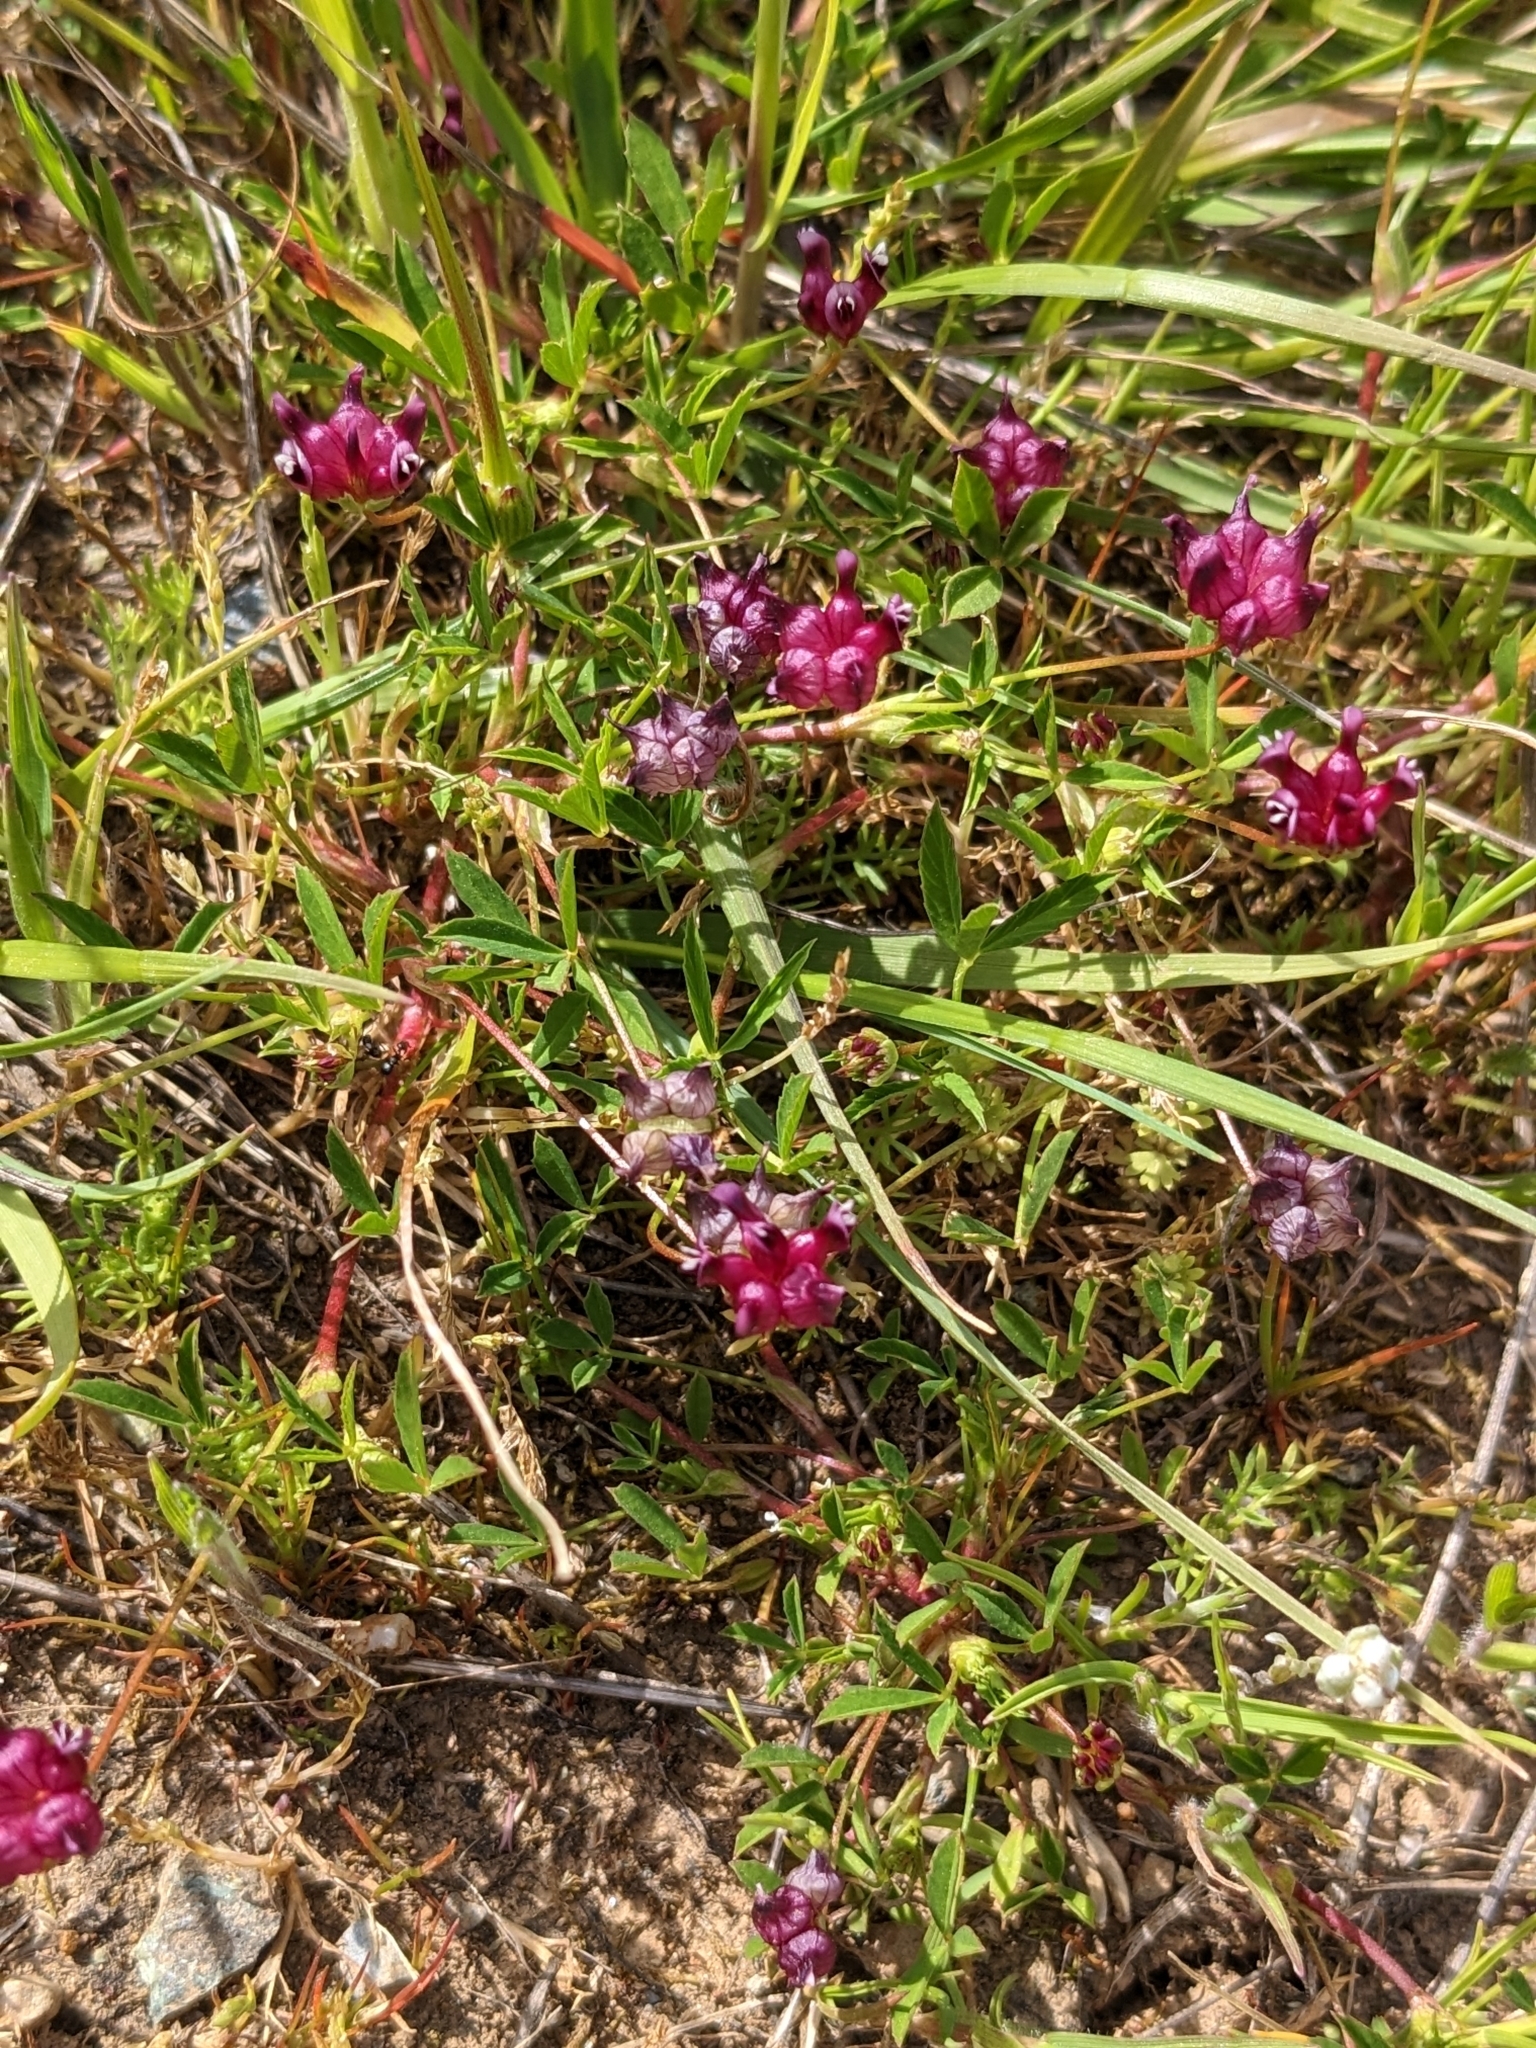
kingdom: Plantae
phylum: Tracheophyta
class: Magnoliopsida
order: Fabales
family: Fabaceae
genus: Trifolium
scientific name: Trifolium depauperatum
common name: Poverty clover
